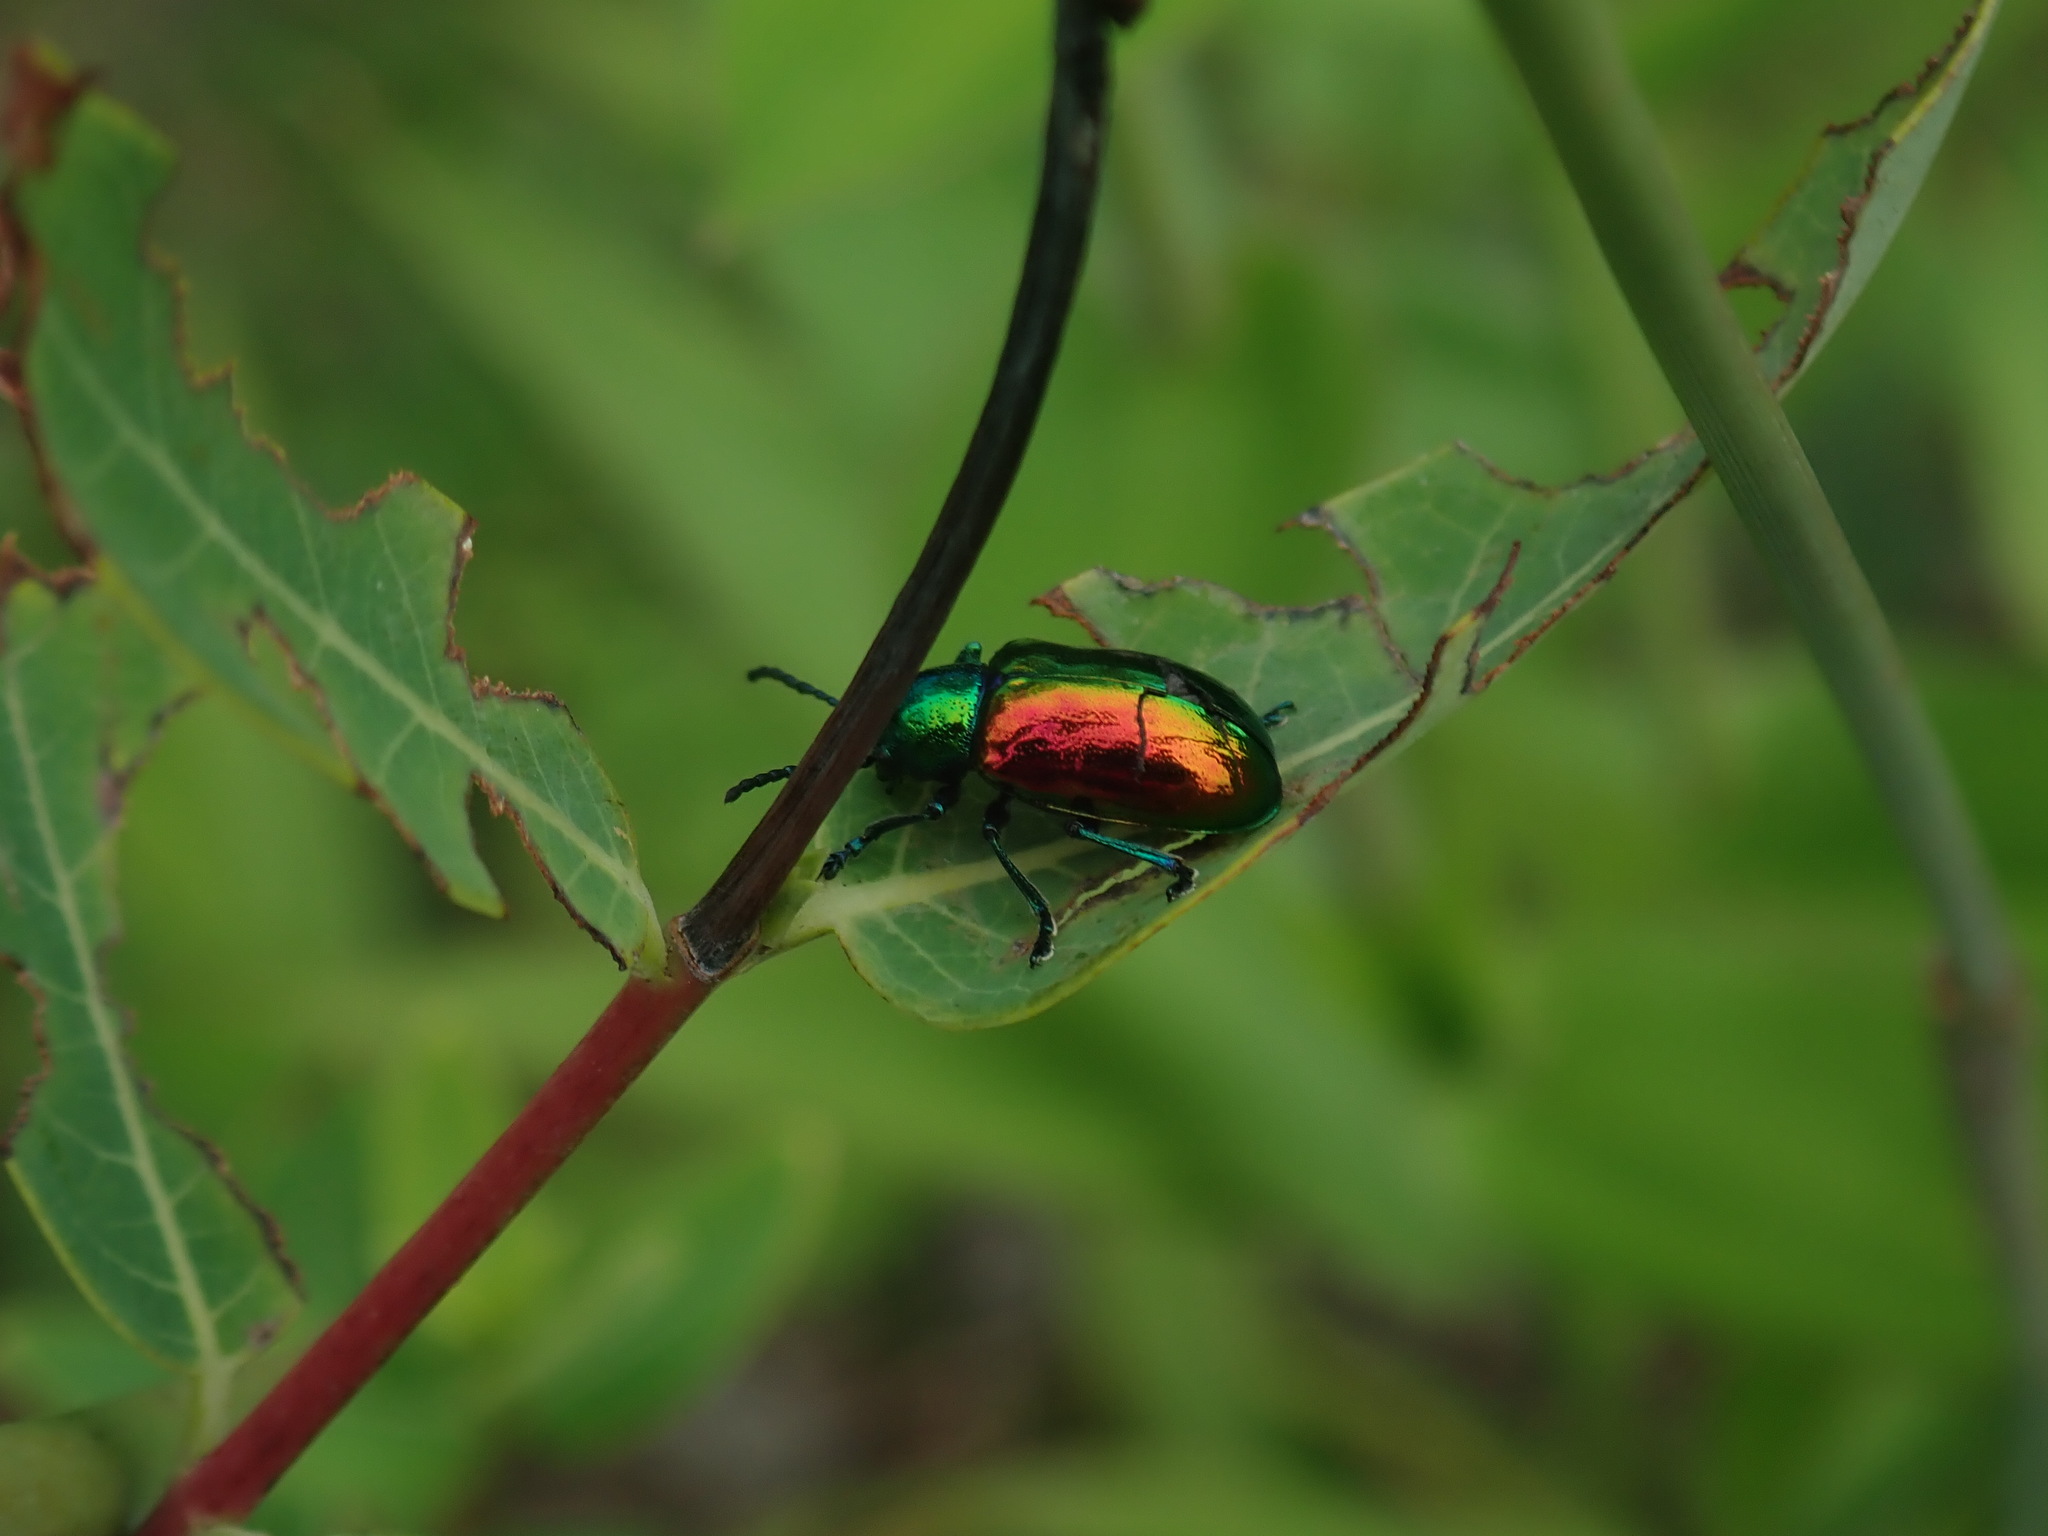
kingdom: Animalia
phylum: Arthropoda
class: Insecta
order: Coleoptera
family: Chrysomelidae
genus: Chrysochus
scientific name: Chrysochus auratus
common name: Dogbane leaf beetle
